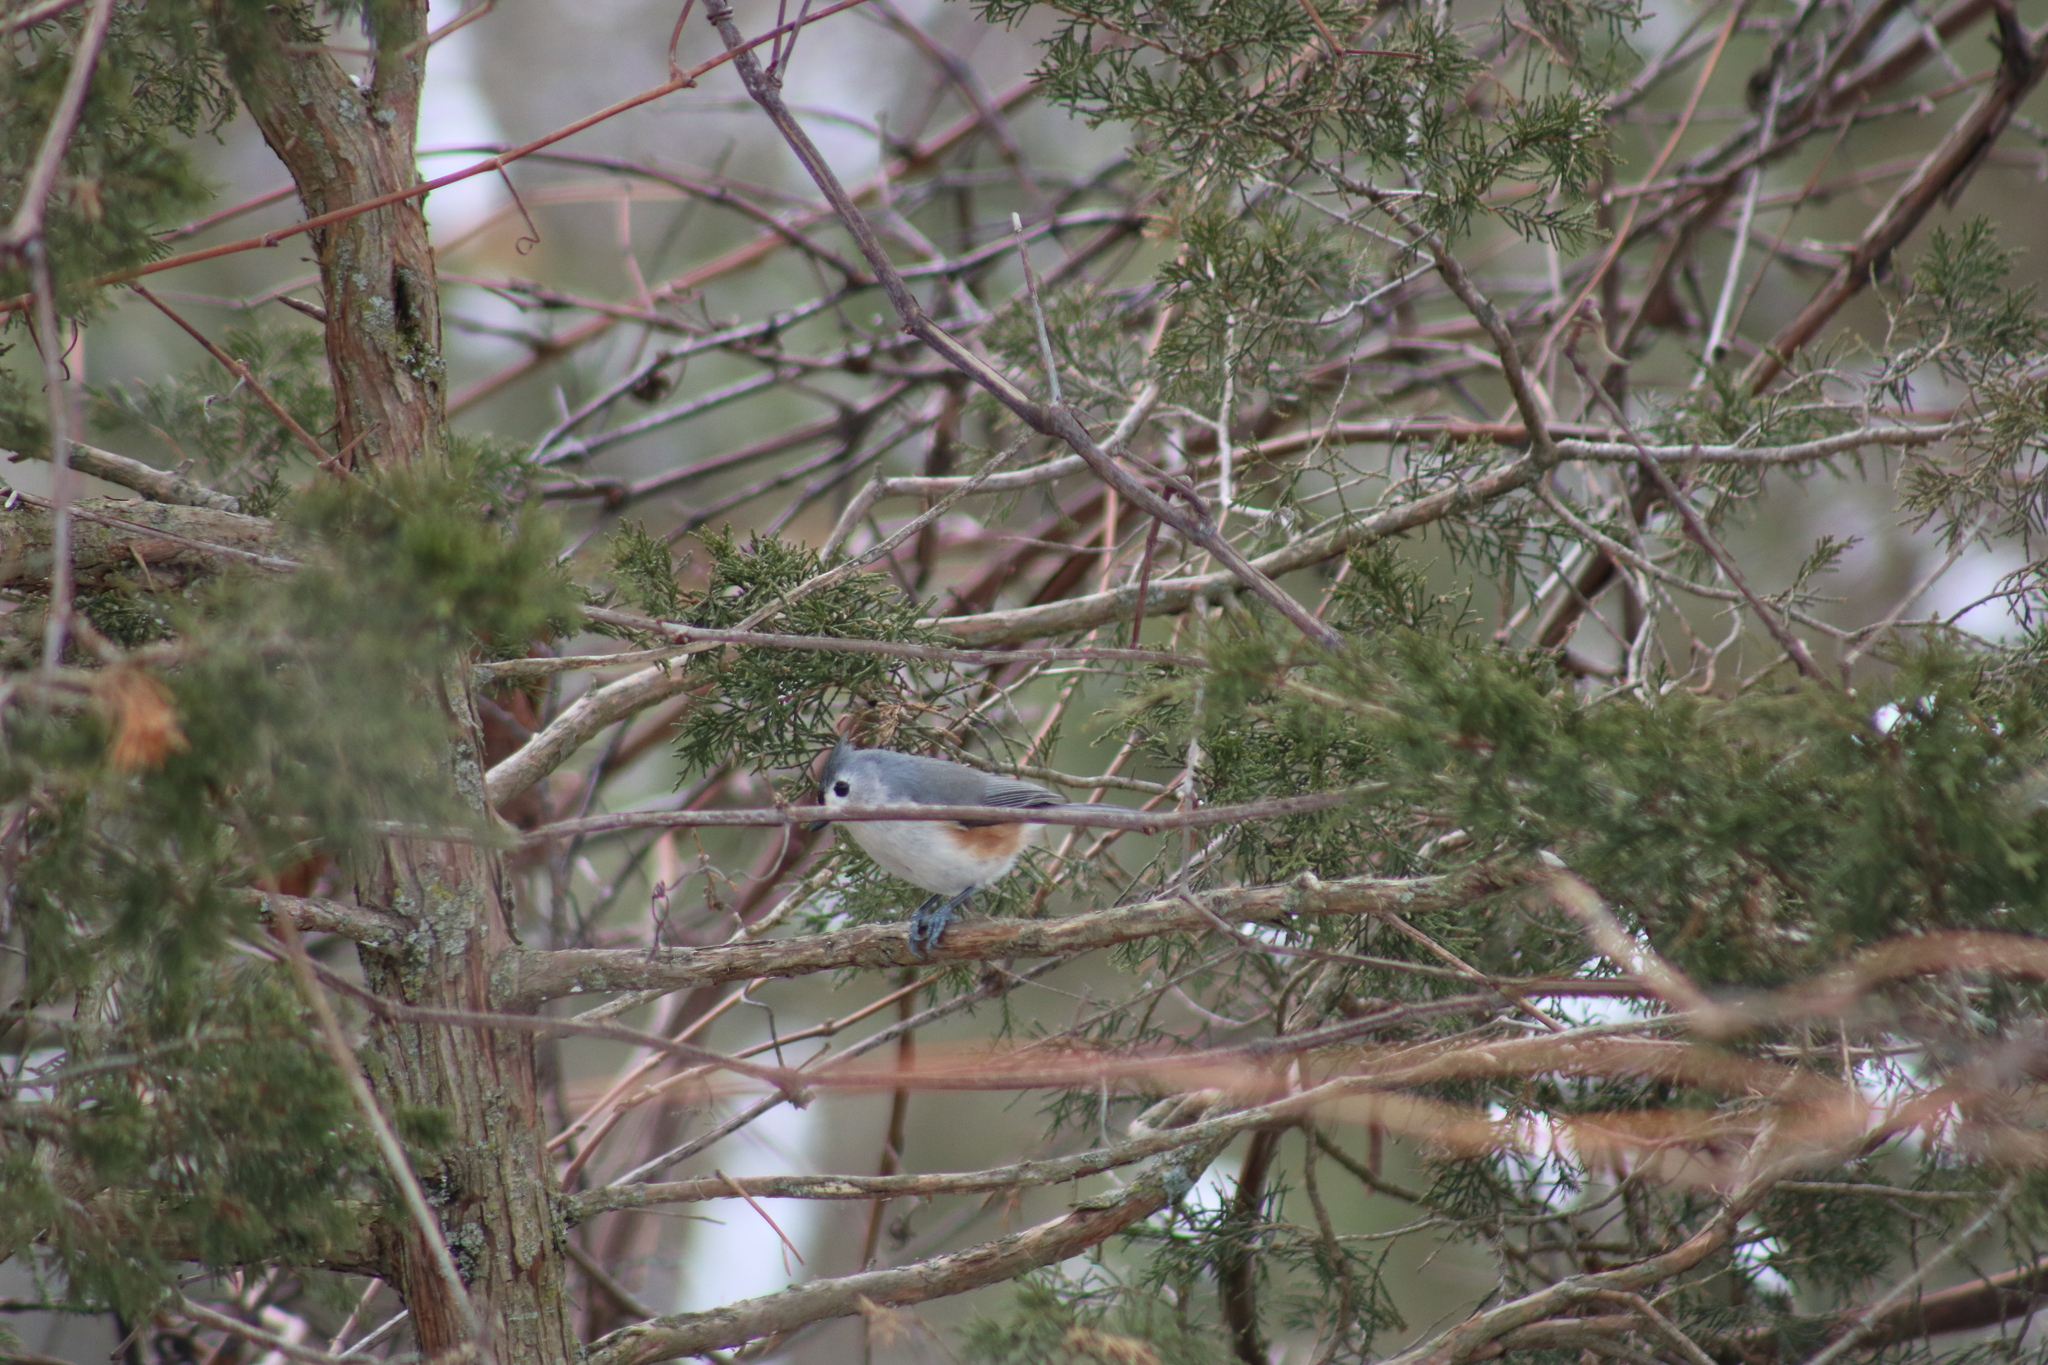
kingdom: Animalia
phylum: Chordata
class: Aves
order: Passeriformes
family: Paridae
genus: Baeolophus
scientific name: Baeolophus bicolor
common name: Tufted titmouse
